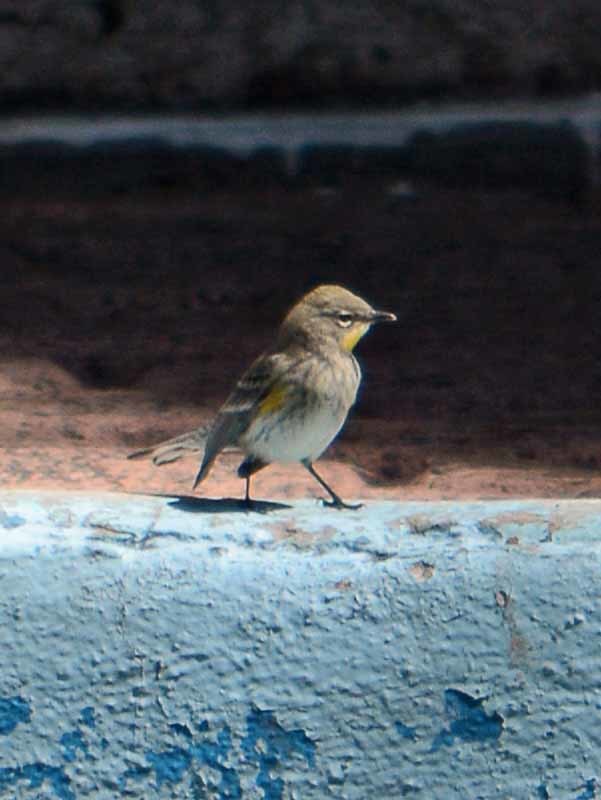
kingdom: Animalia
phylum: Chordata
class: Aves
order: Passeriformes
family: Parulidae
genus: Setophaga
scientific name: Setophaga coronata
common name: Myrtle warbler
